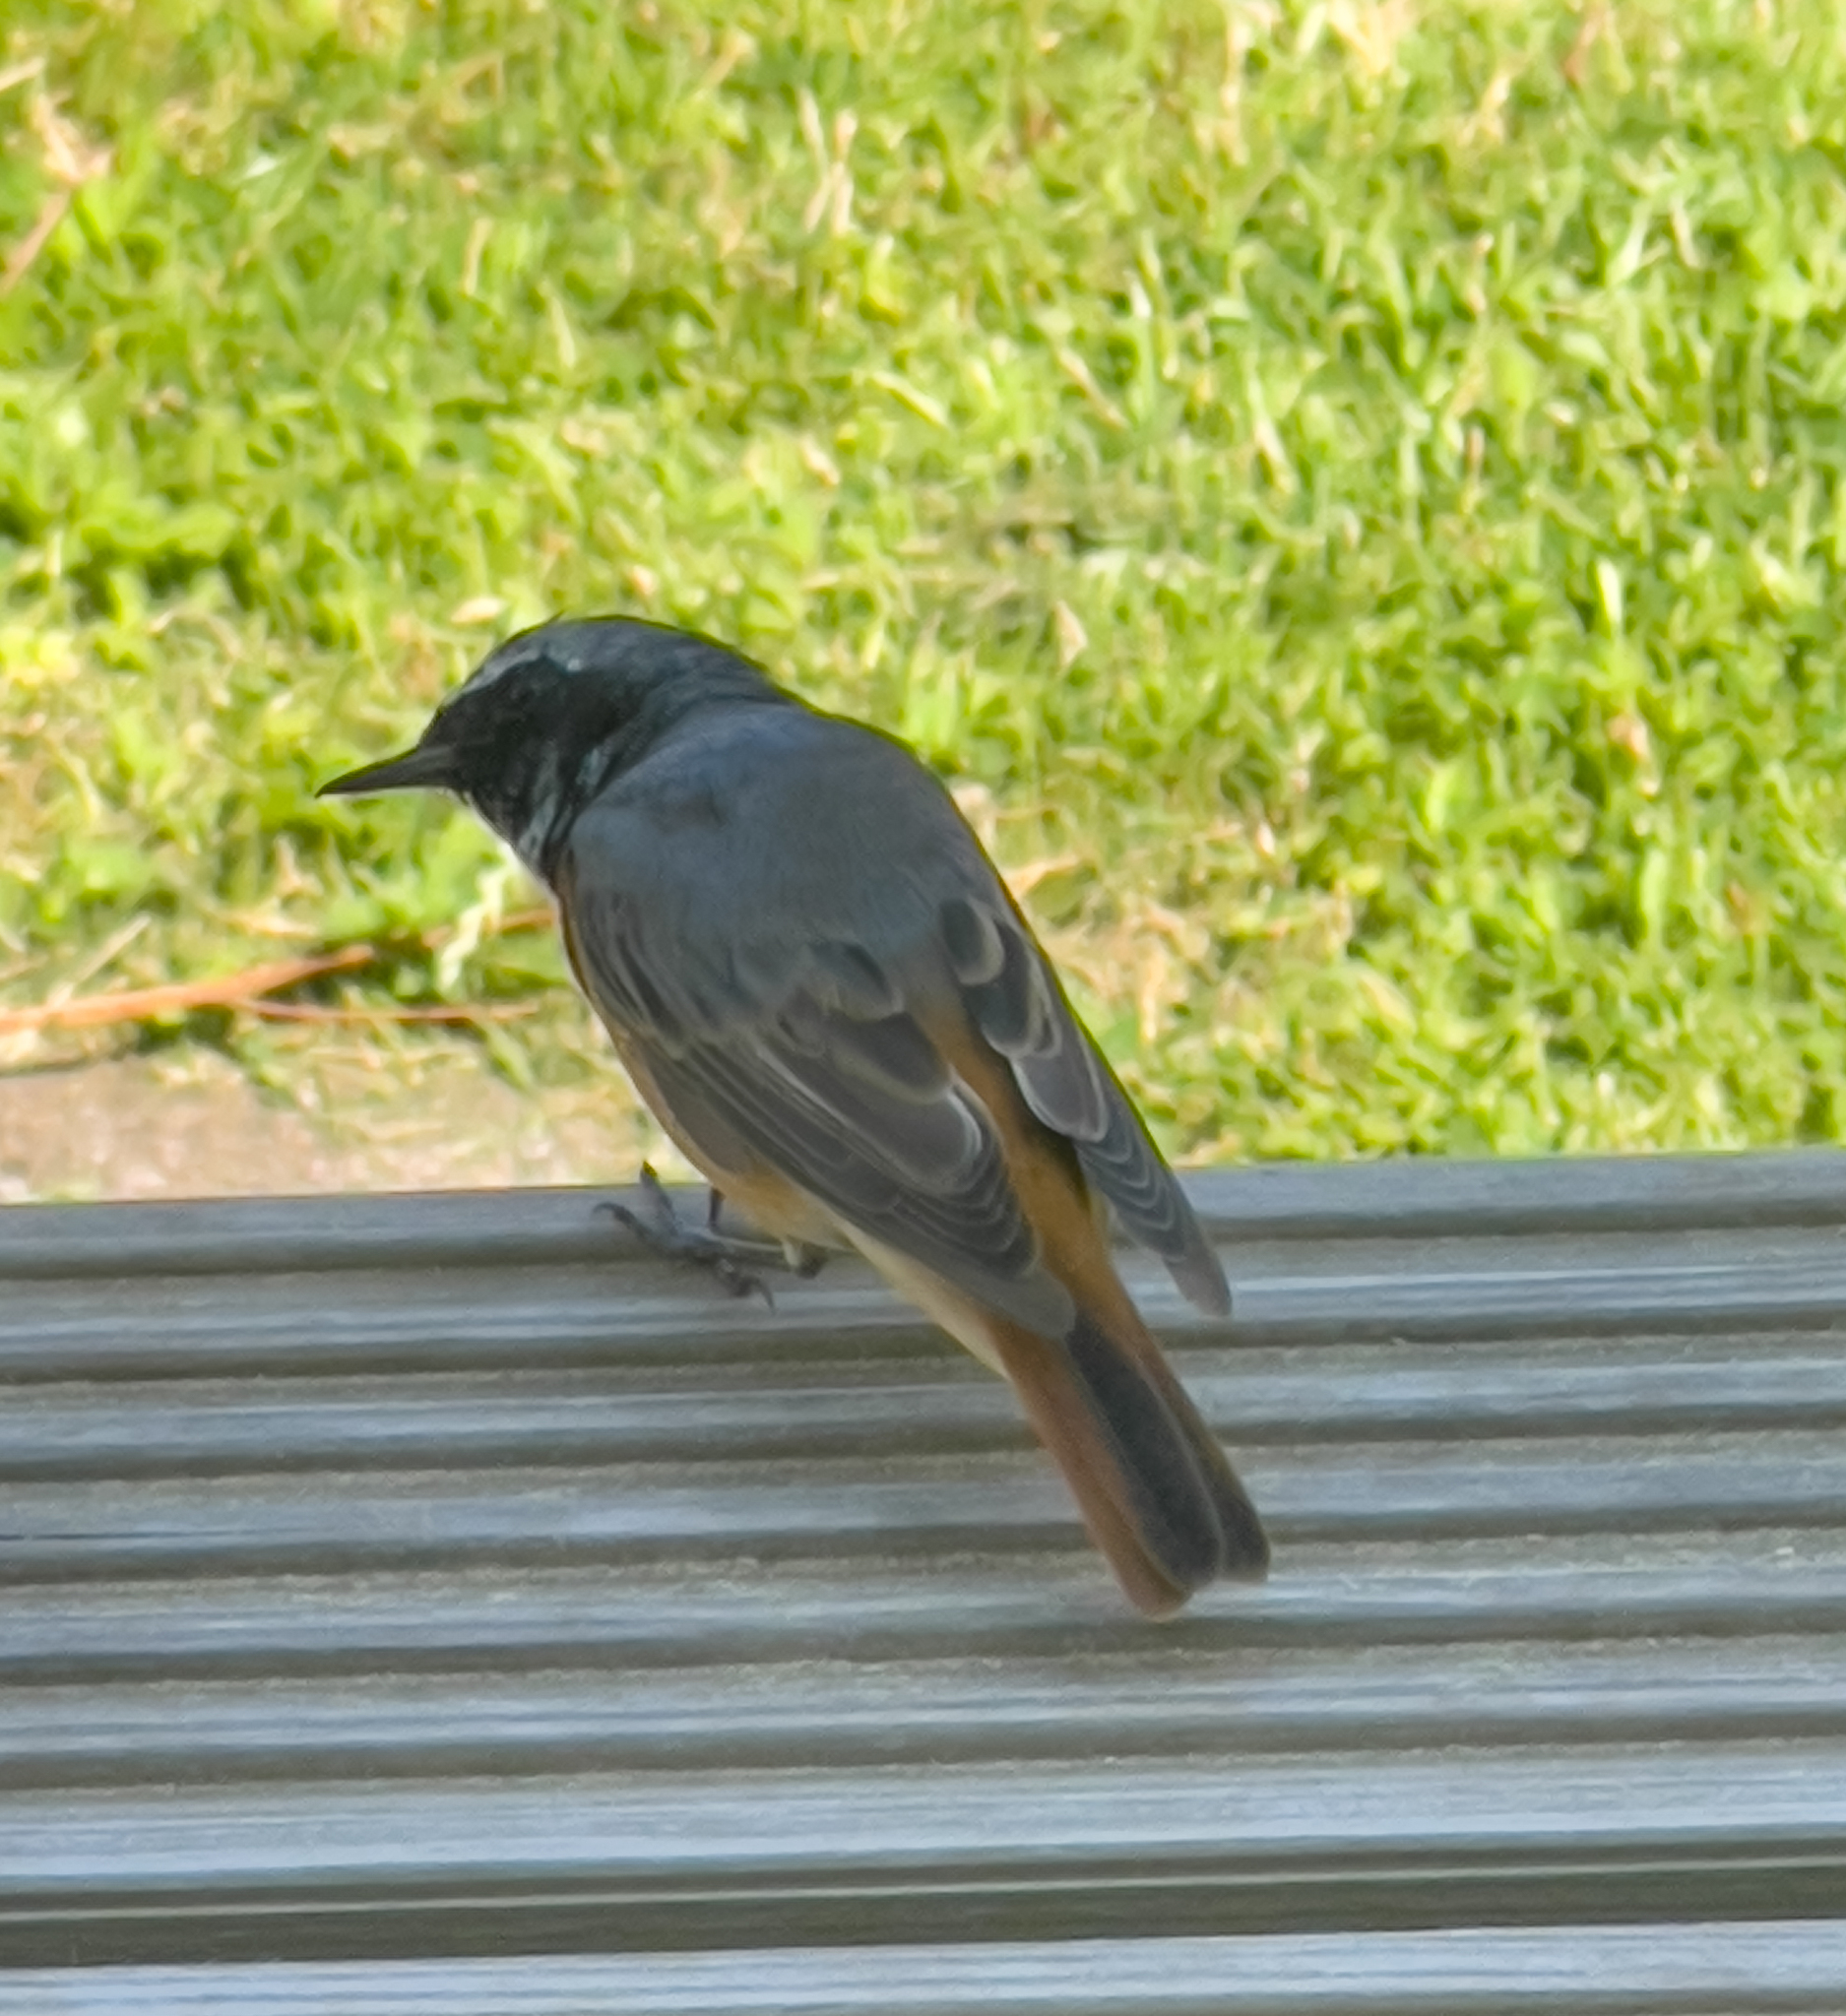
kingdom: Animalia
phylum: Chordata
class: Aves
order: Passeriformes
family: Muscicapidae
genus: Phoenicurus
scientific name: Phoenicurus phoenicurus
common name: Common redstart
